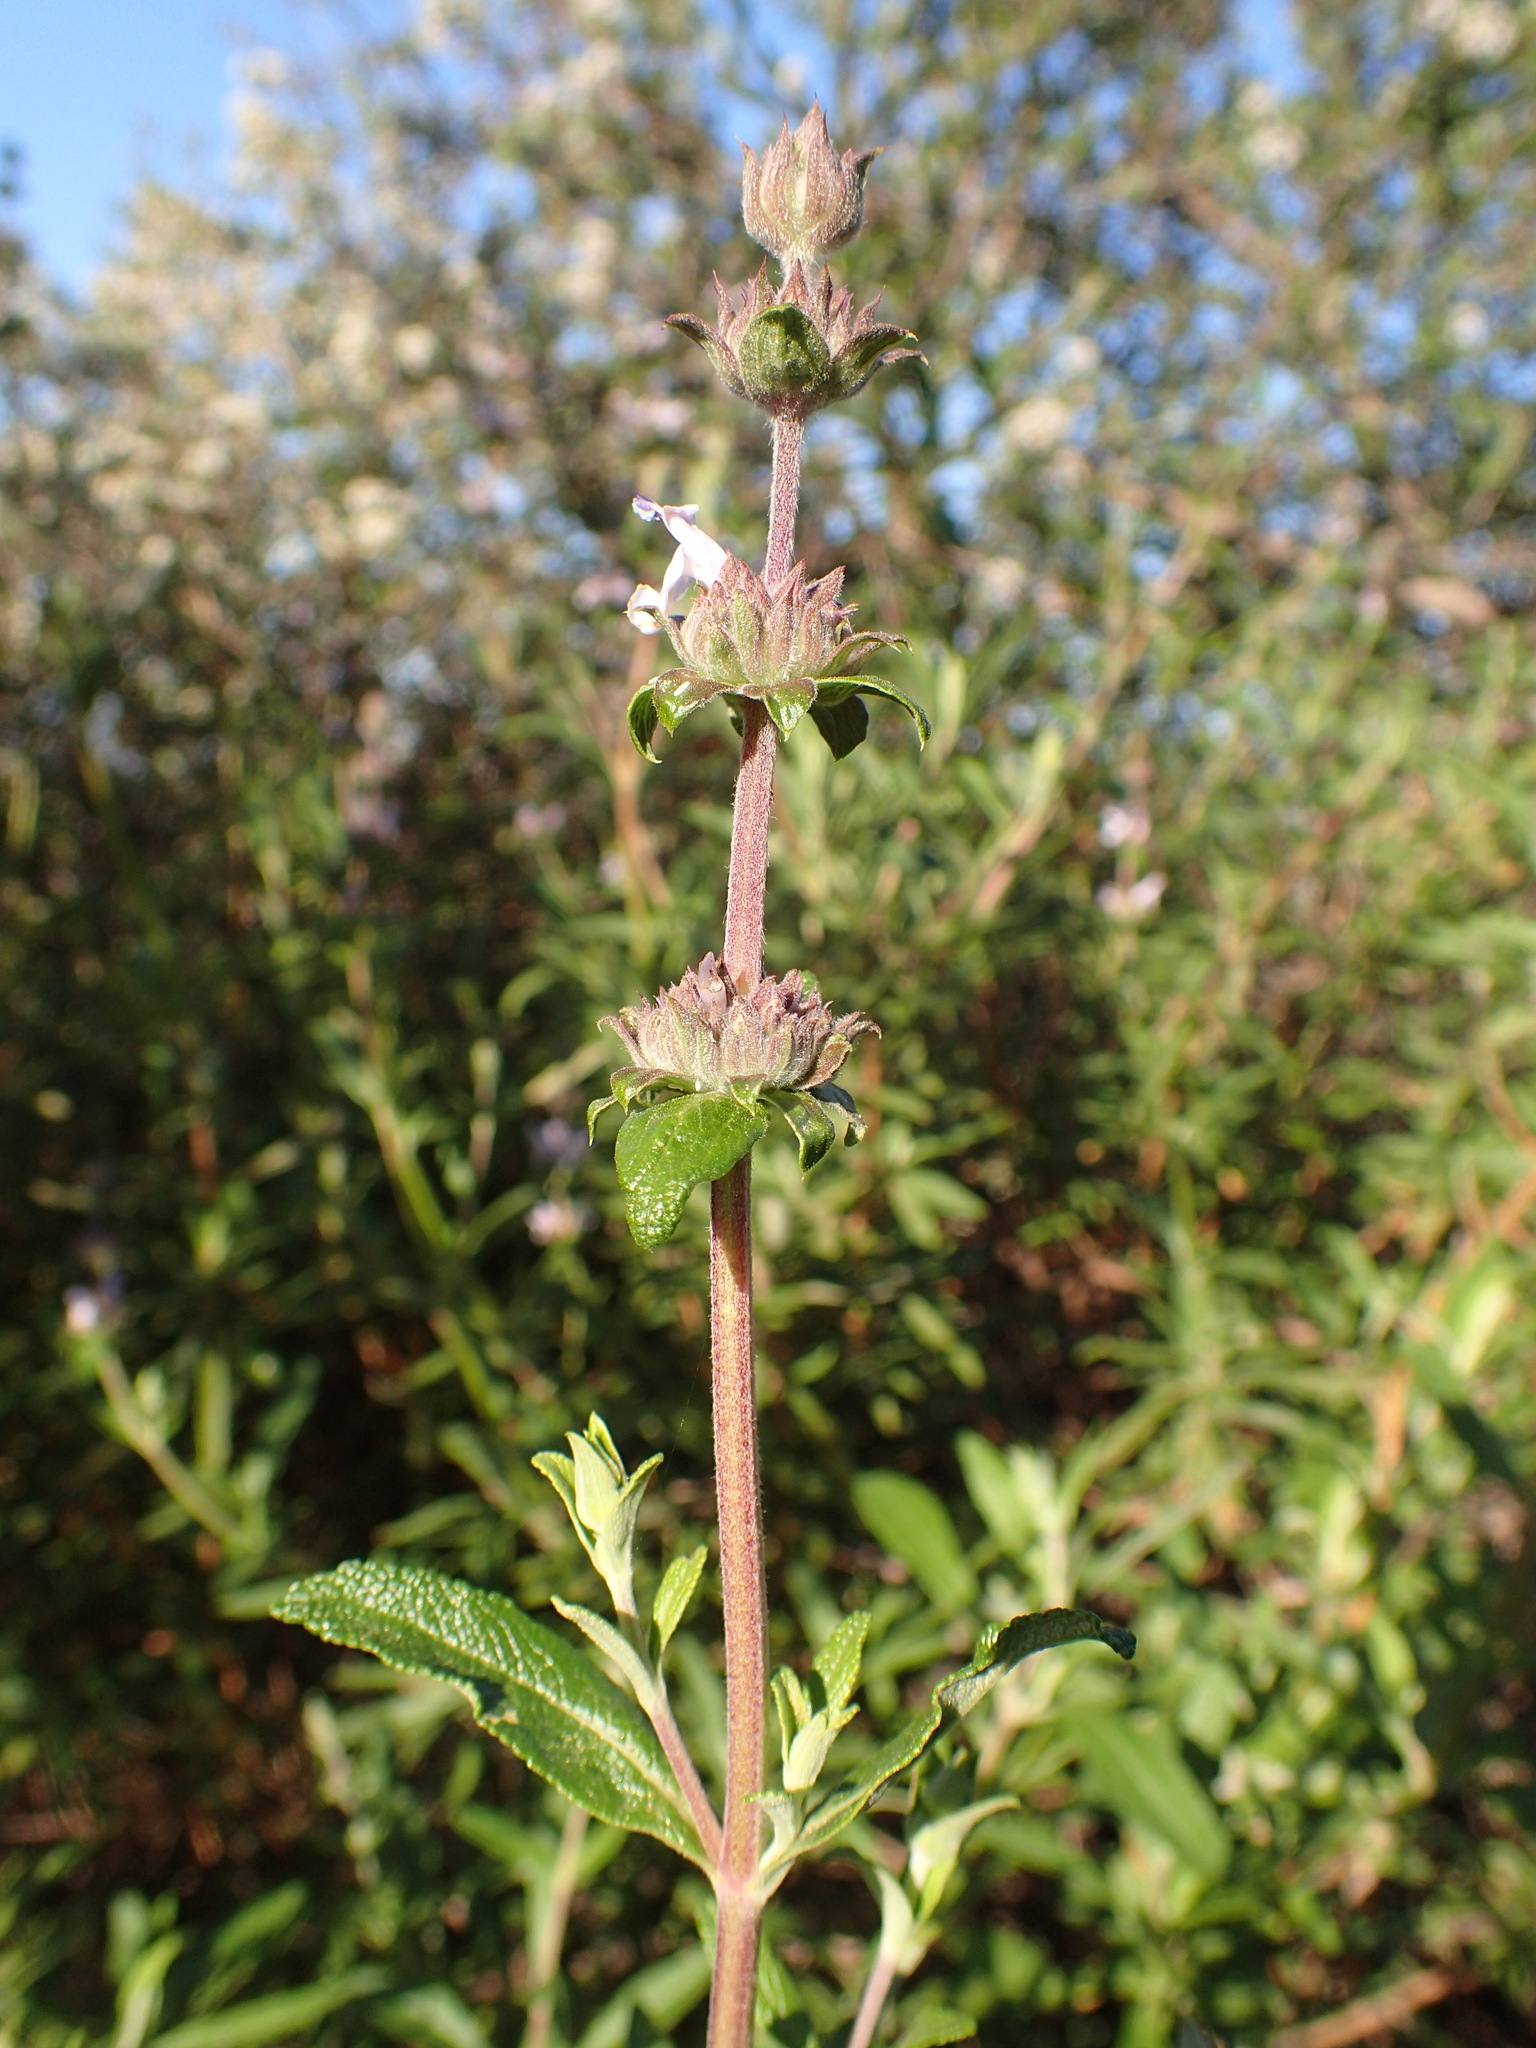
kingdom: Plantae
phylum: Tracheophyta
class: Magnoliopsida
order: Lamiales
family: Lamiaceae
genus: Salvia
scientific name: Salvia mellifera
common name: Black sage
